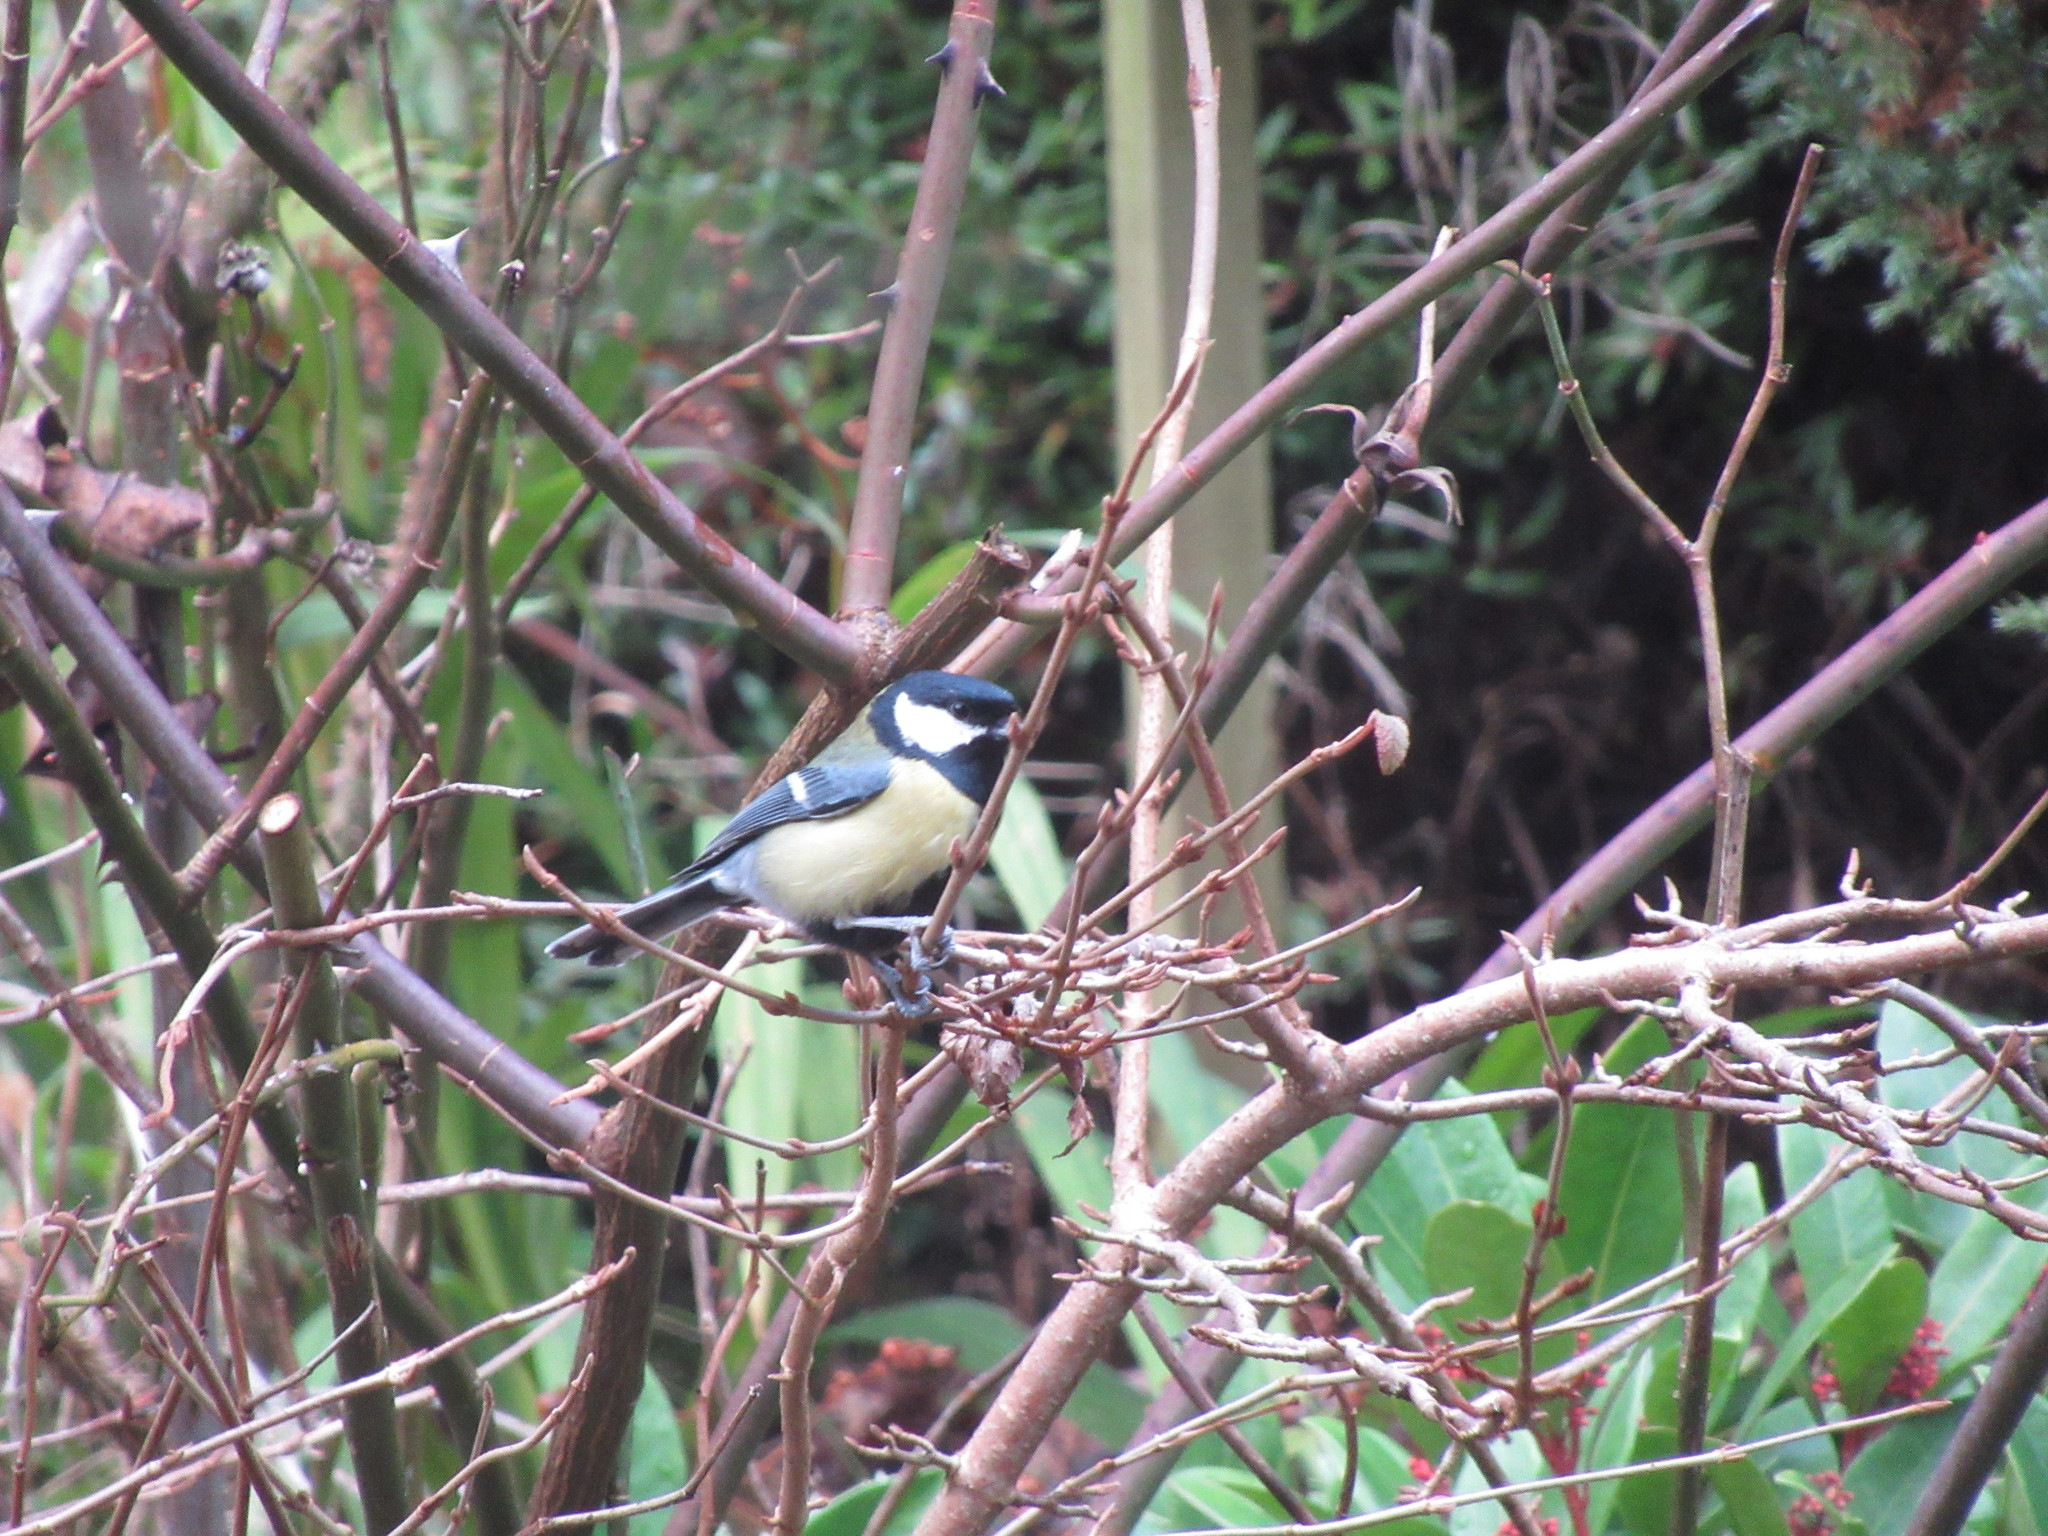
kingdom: Animalia
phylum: Chordata
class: Aves
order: Passeriformes
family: Paridae
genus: Parus
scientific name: Parus major
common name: Great tit
